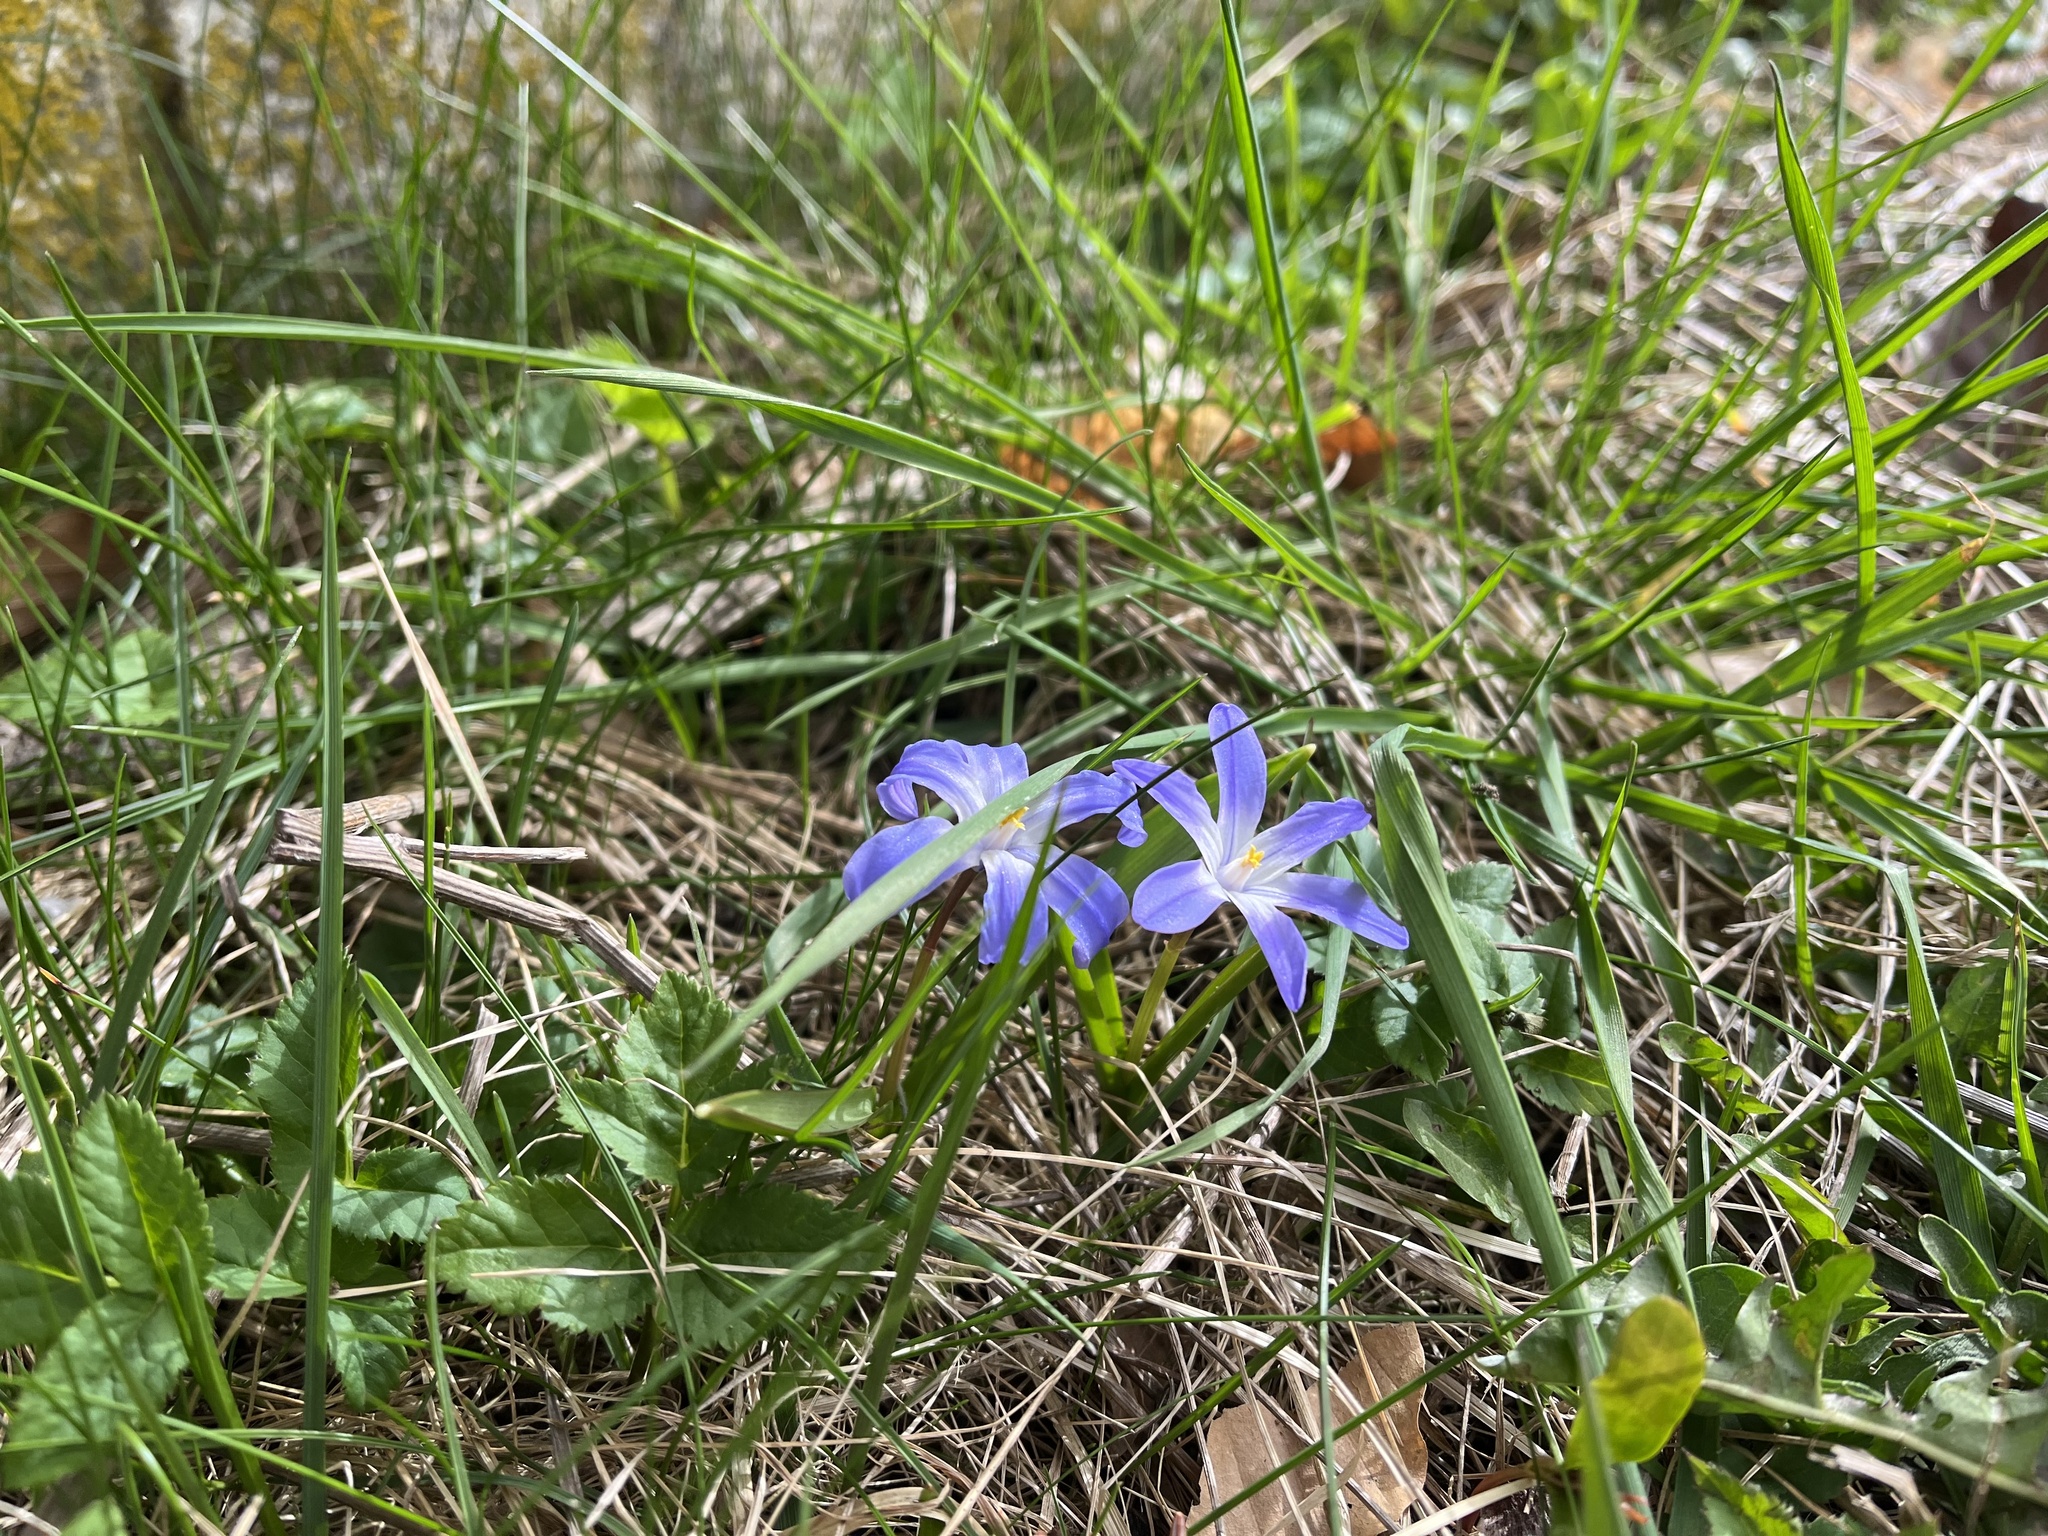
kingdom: Plantae
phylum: Tracheophyta
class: Liliopsida
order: Asparagales
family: Asparagaceae
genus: Scilla
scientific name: Scilla luciliae
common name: Boissier's glory-of-the-snow
